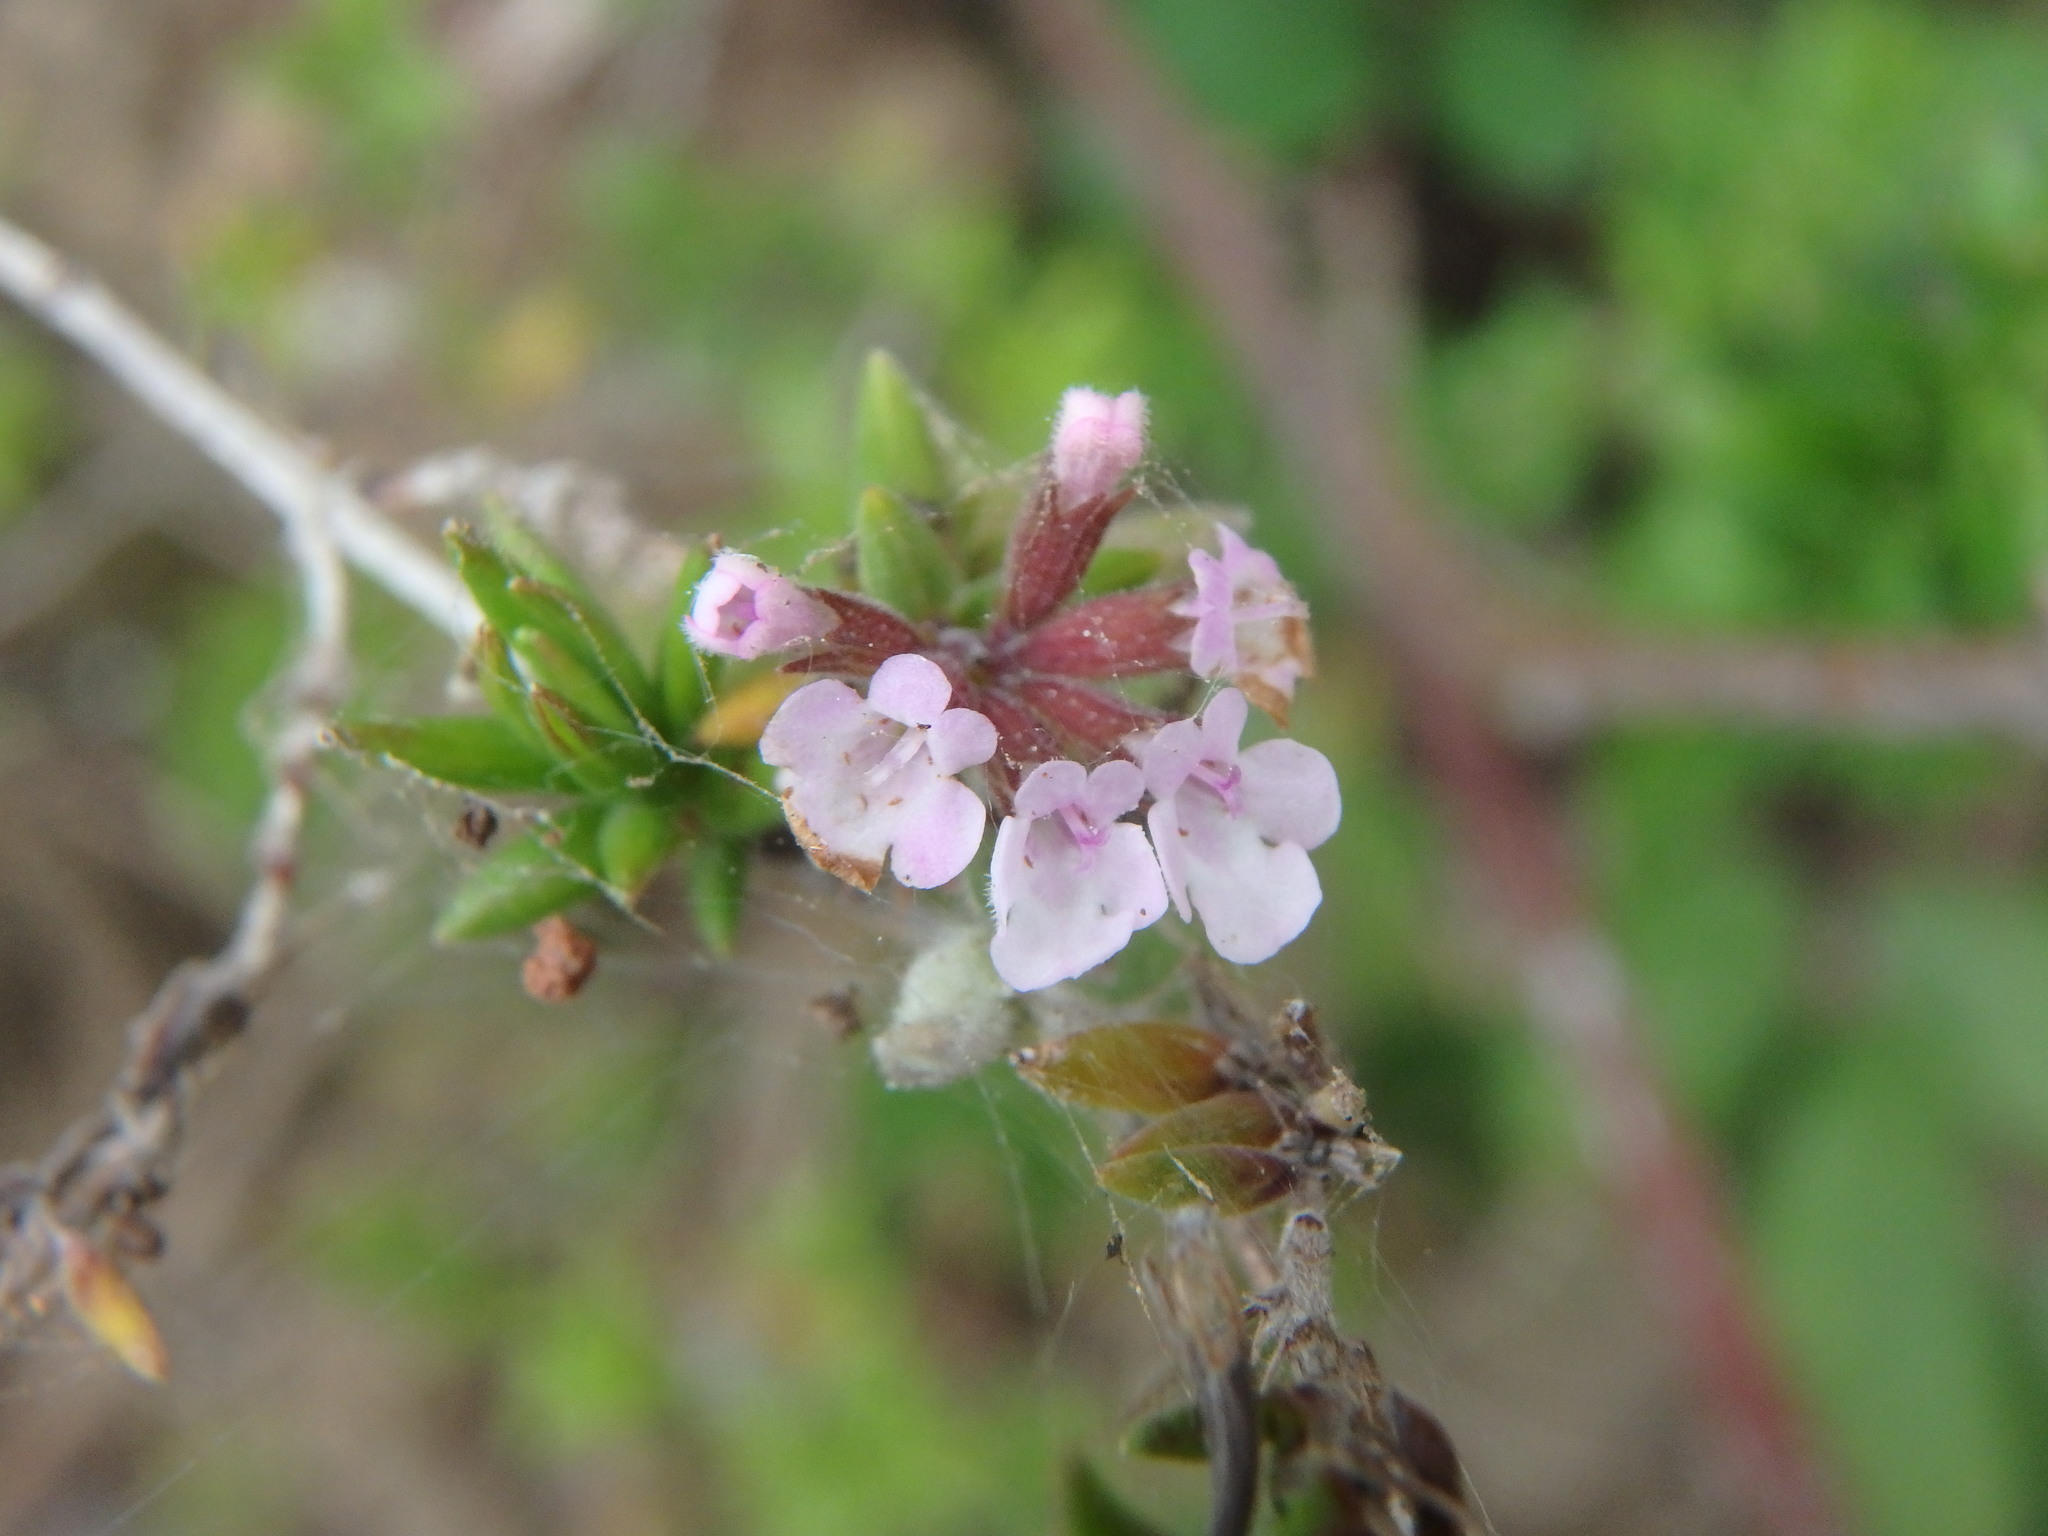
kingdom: Plantae
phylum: Tracheophyta
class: Magnoliopsida
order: Lamiales
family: Lamiaceae
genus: Micromeria
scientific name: Micromeria ericifolia
